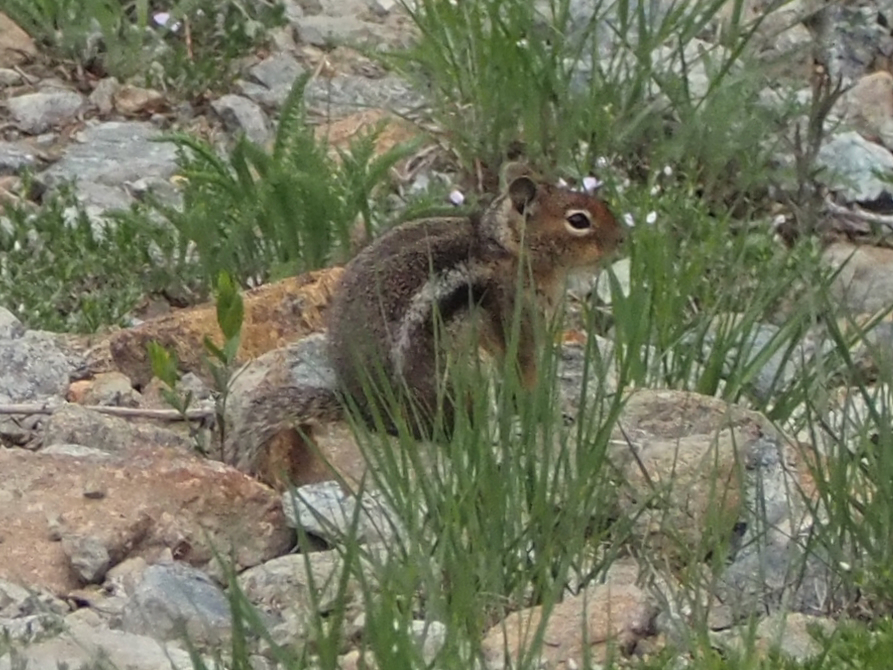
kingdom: Animalia
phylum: Chordata
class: Mammalia
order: Rodentia
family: Sciuridae
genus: Callospermophilus
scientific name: Callospermophilus saturatus
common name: Cascade golden-mantled ground squirrel
